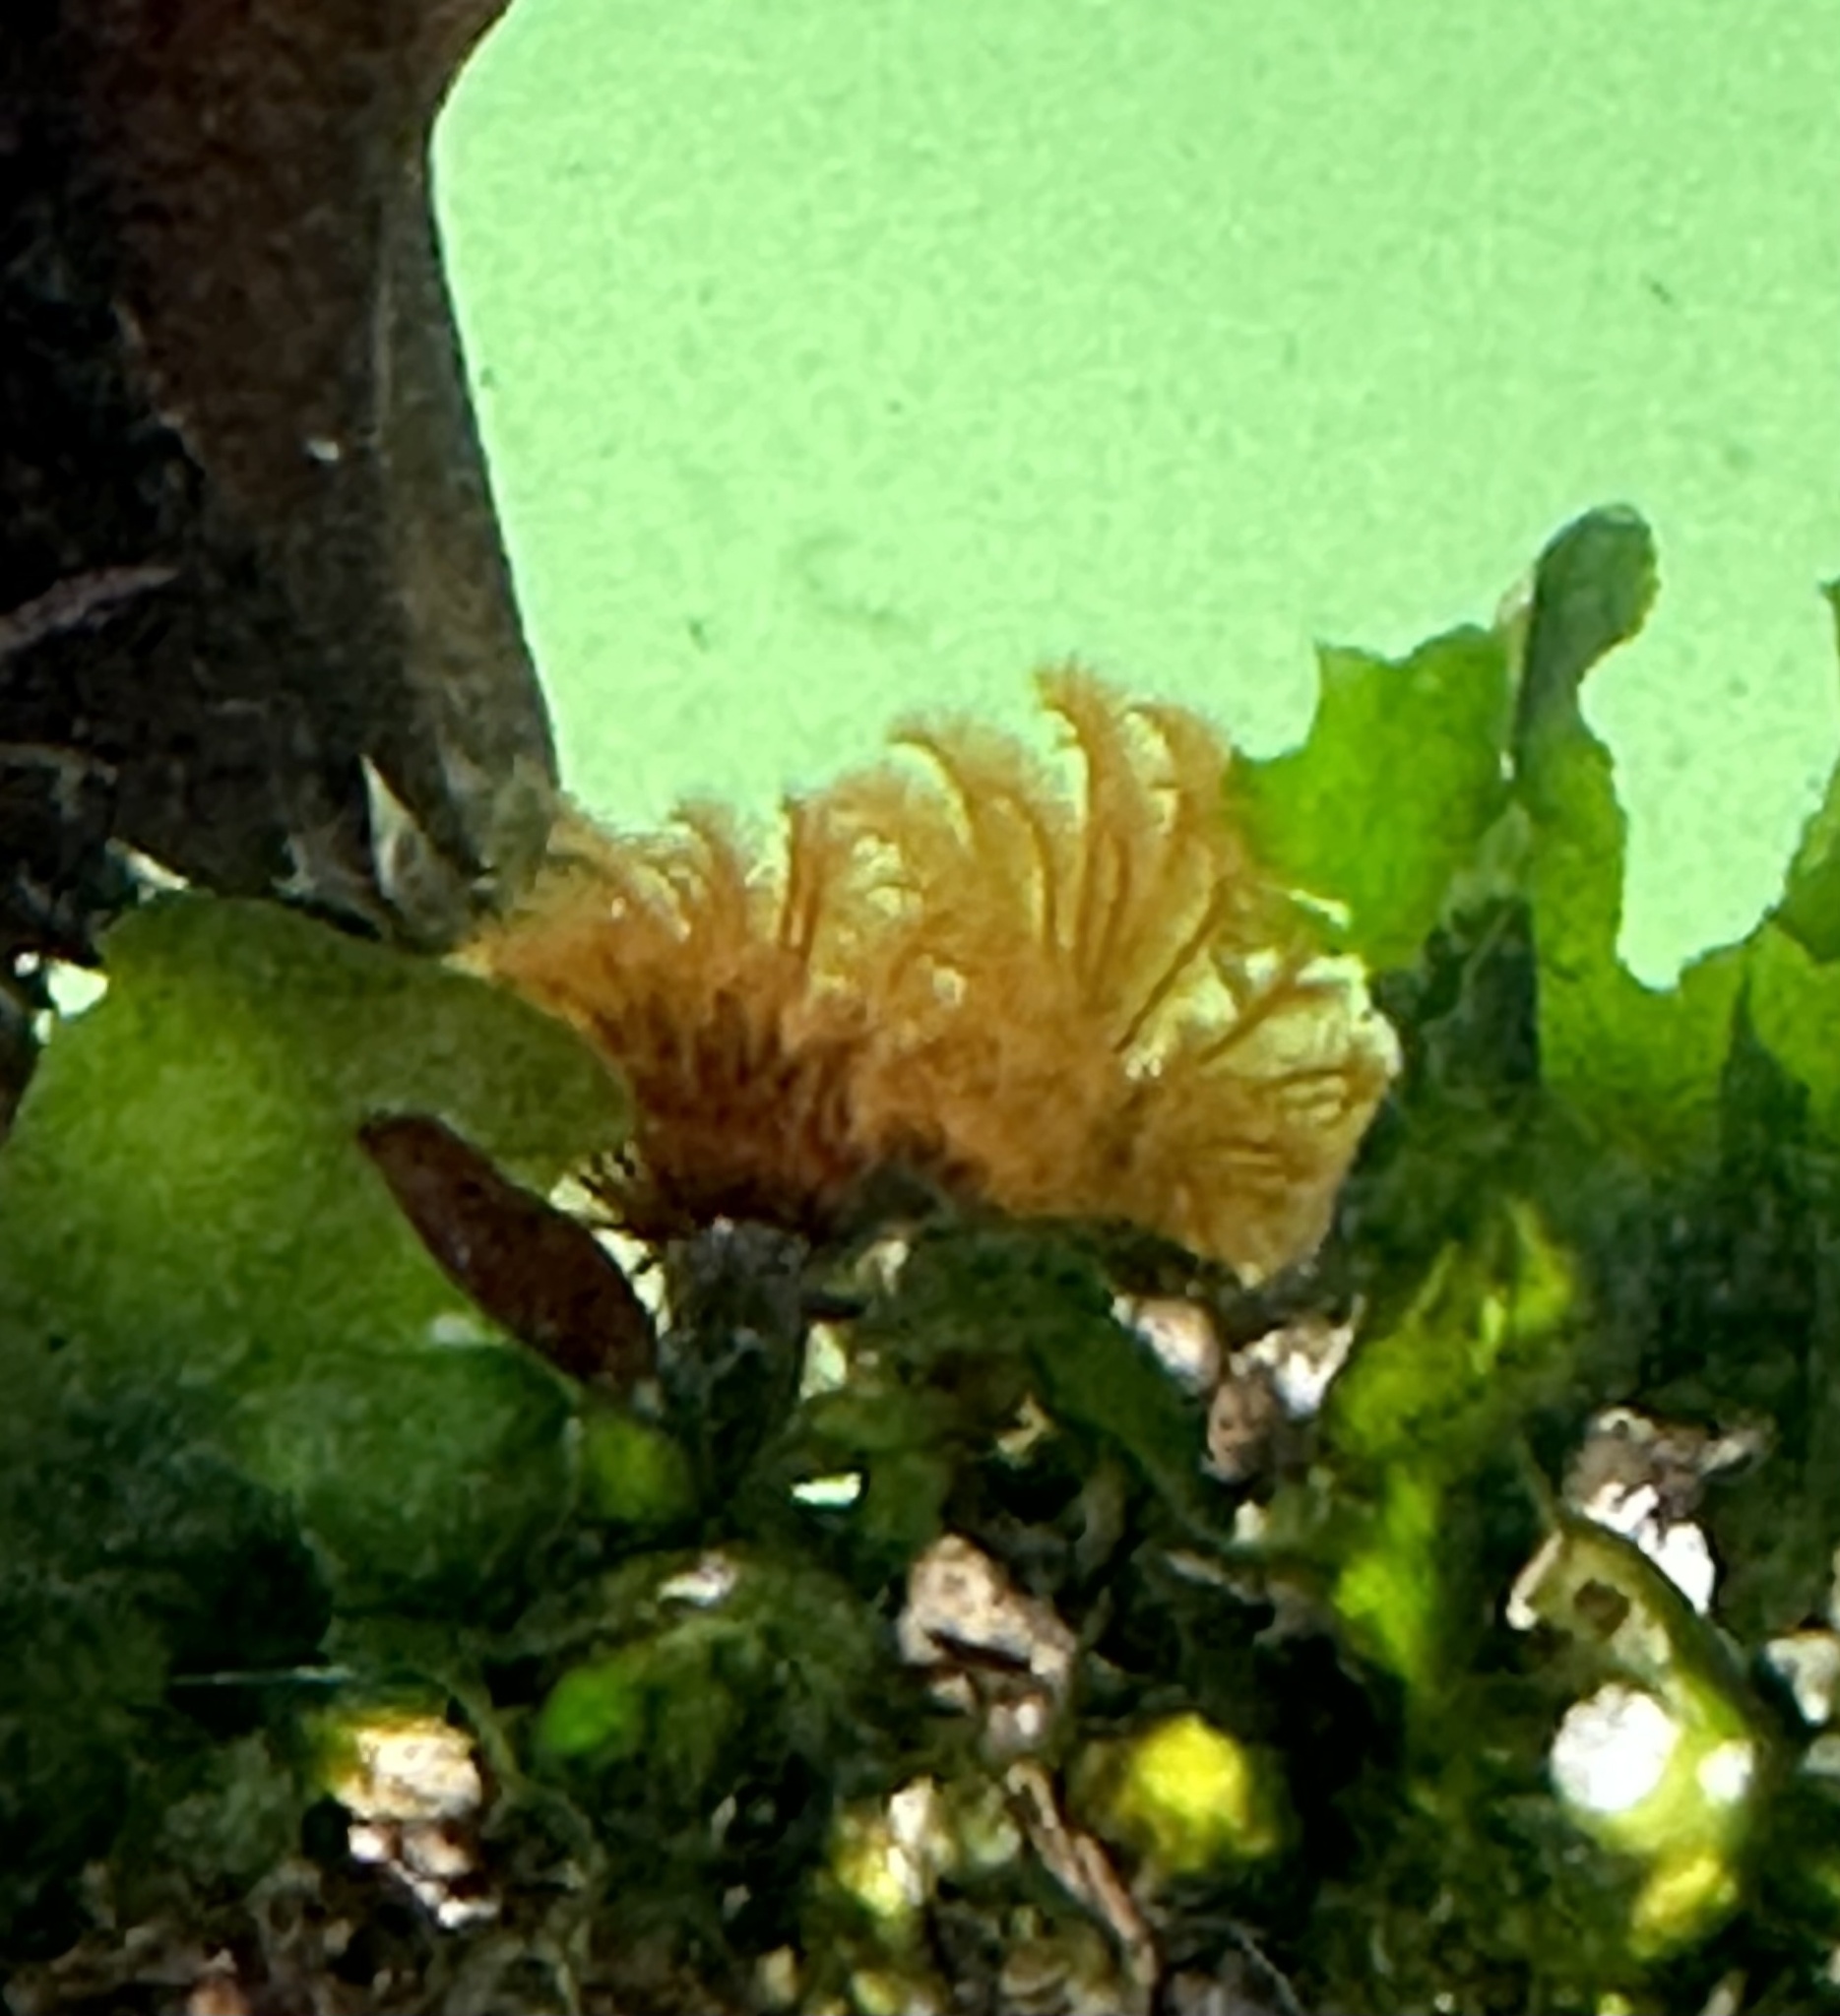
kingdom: Animalia
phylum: Annelida
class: Polychaeta
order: Sabellida
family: Sabellidae
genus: Eudistylia
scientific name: Eudistylia polymorpha
